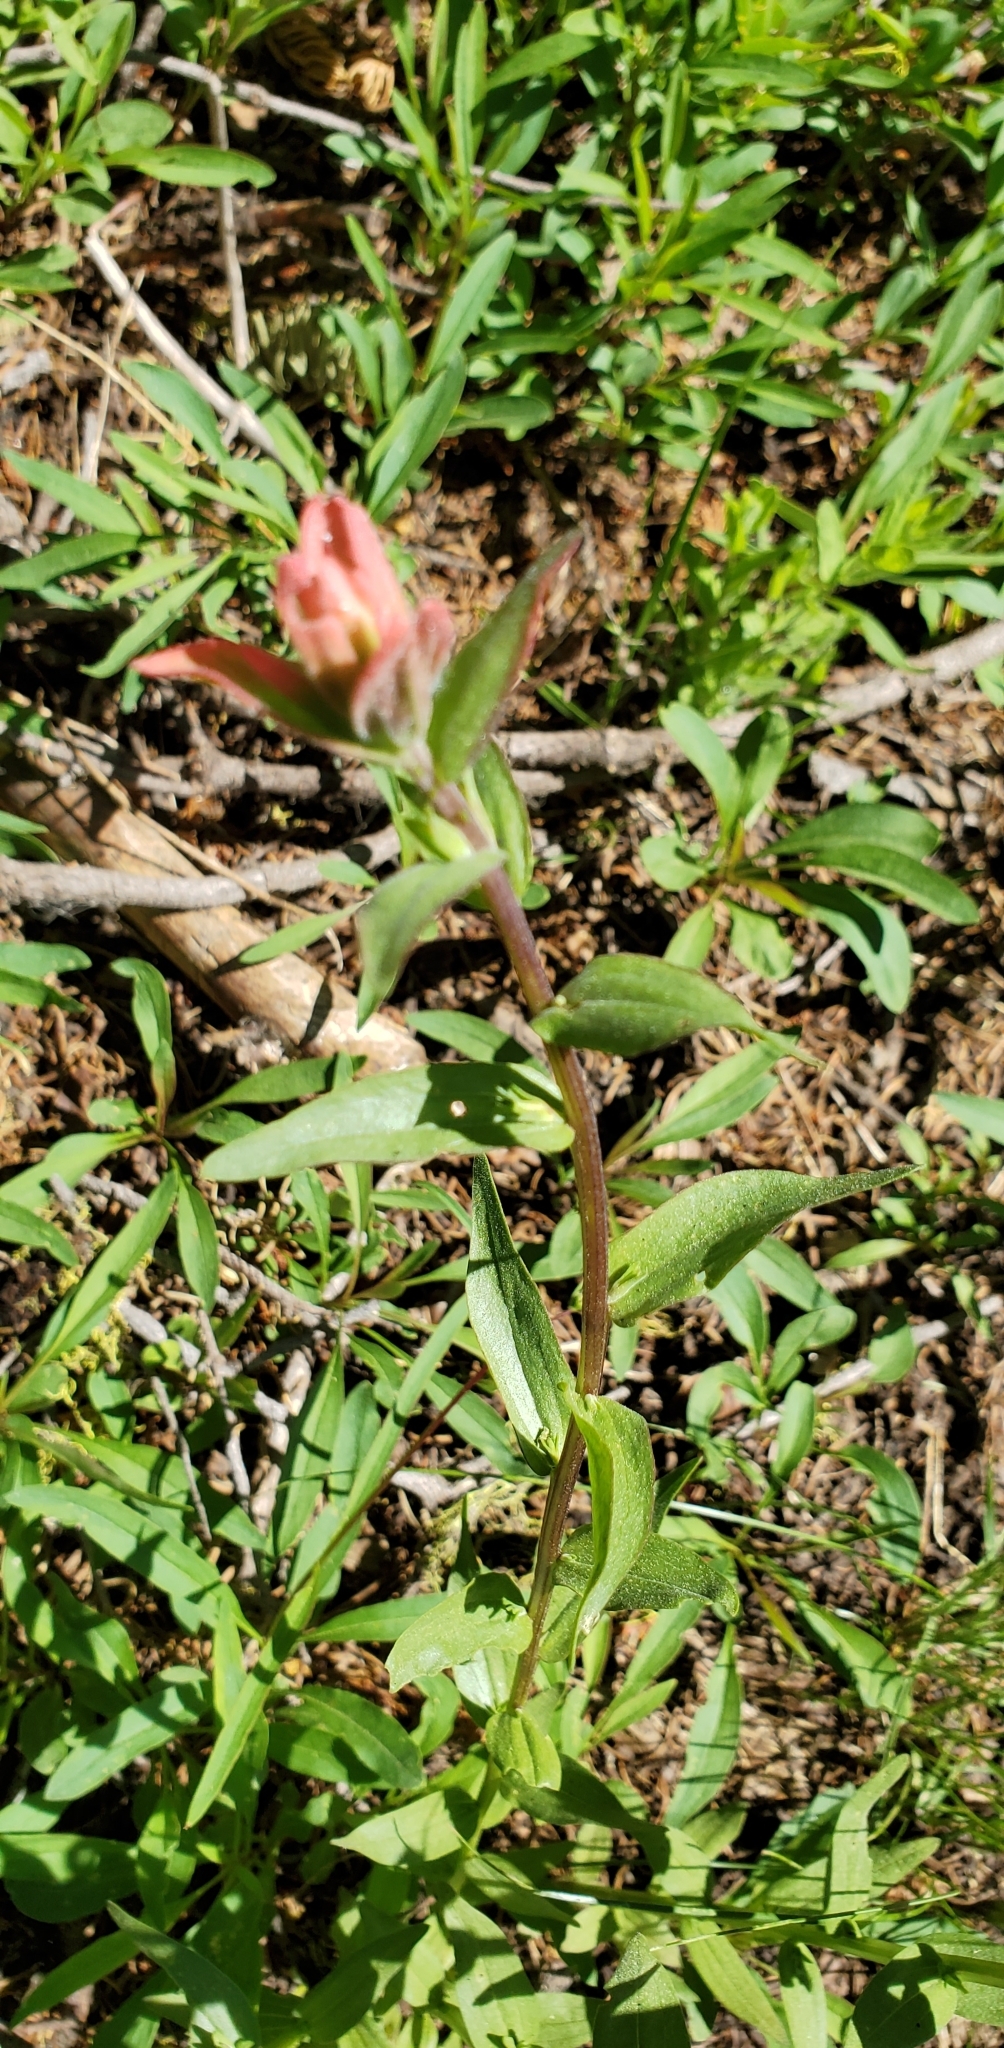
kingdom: Plantae
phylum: Tracheophyta
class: Magnoliopsida
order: Lamiales
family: Orobanchaceae
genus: Castilleja
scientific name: Castilleja miniata
